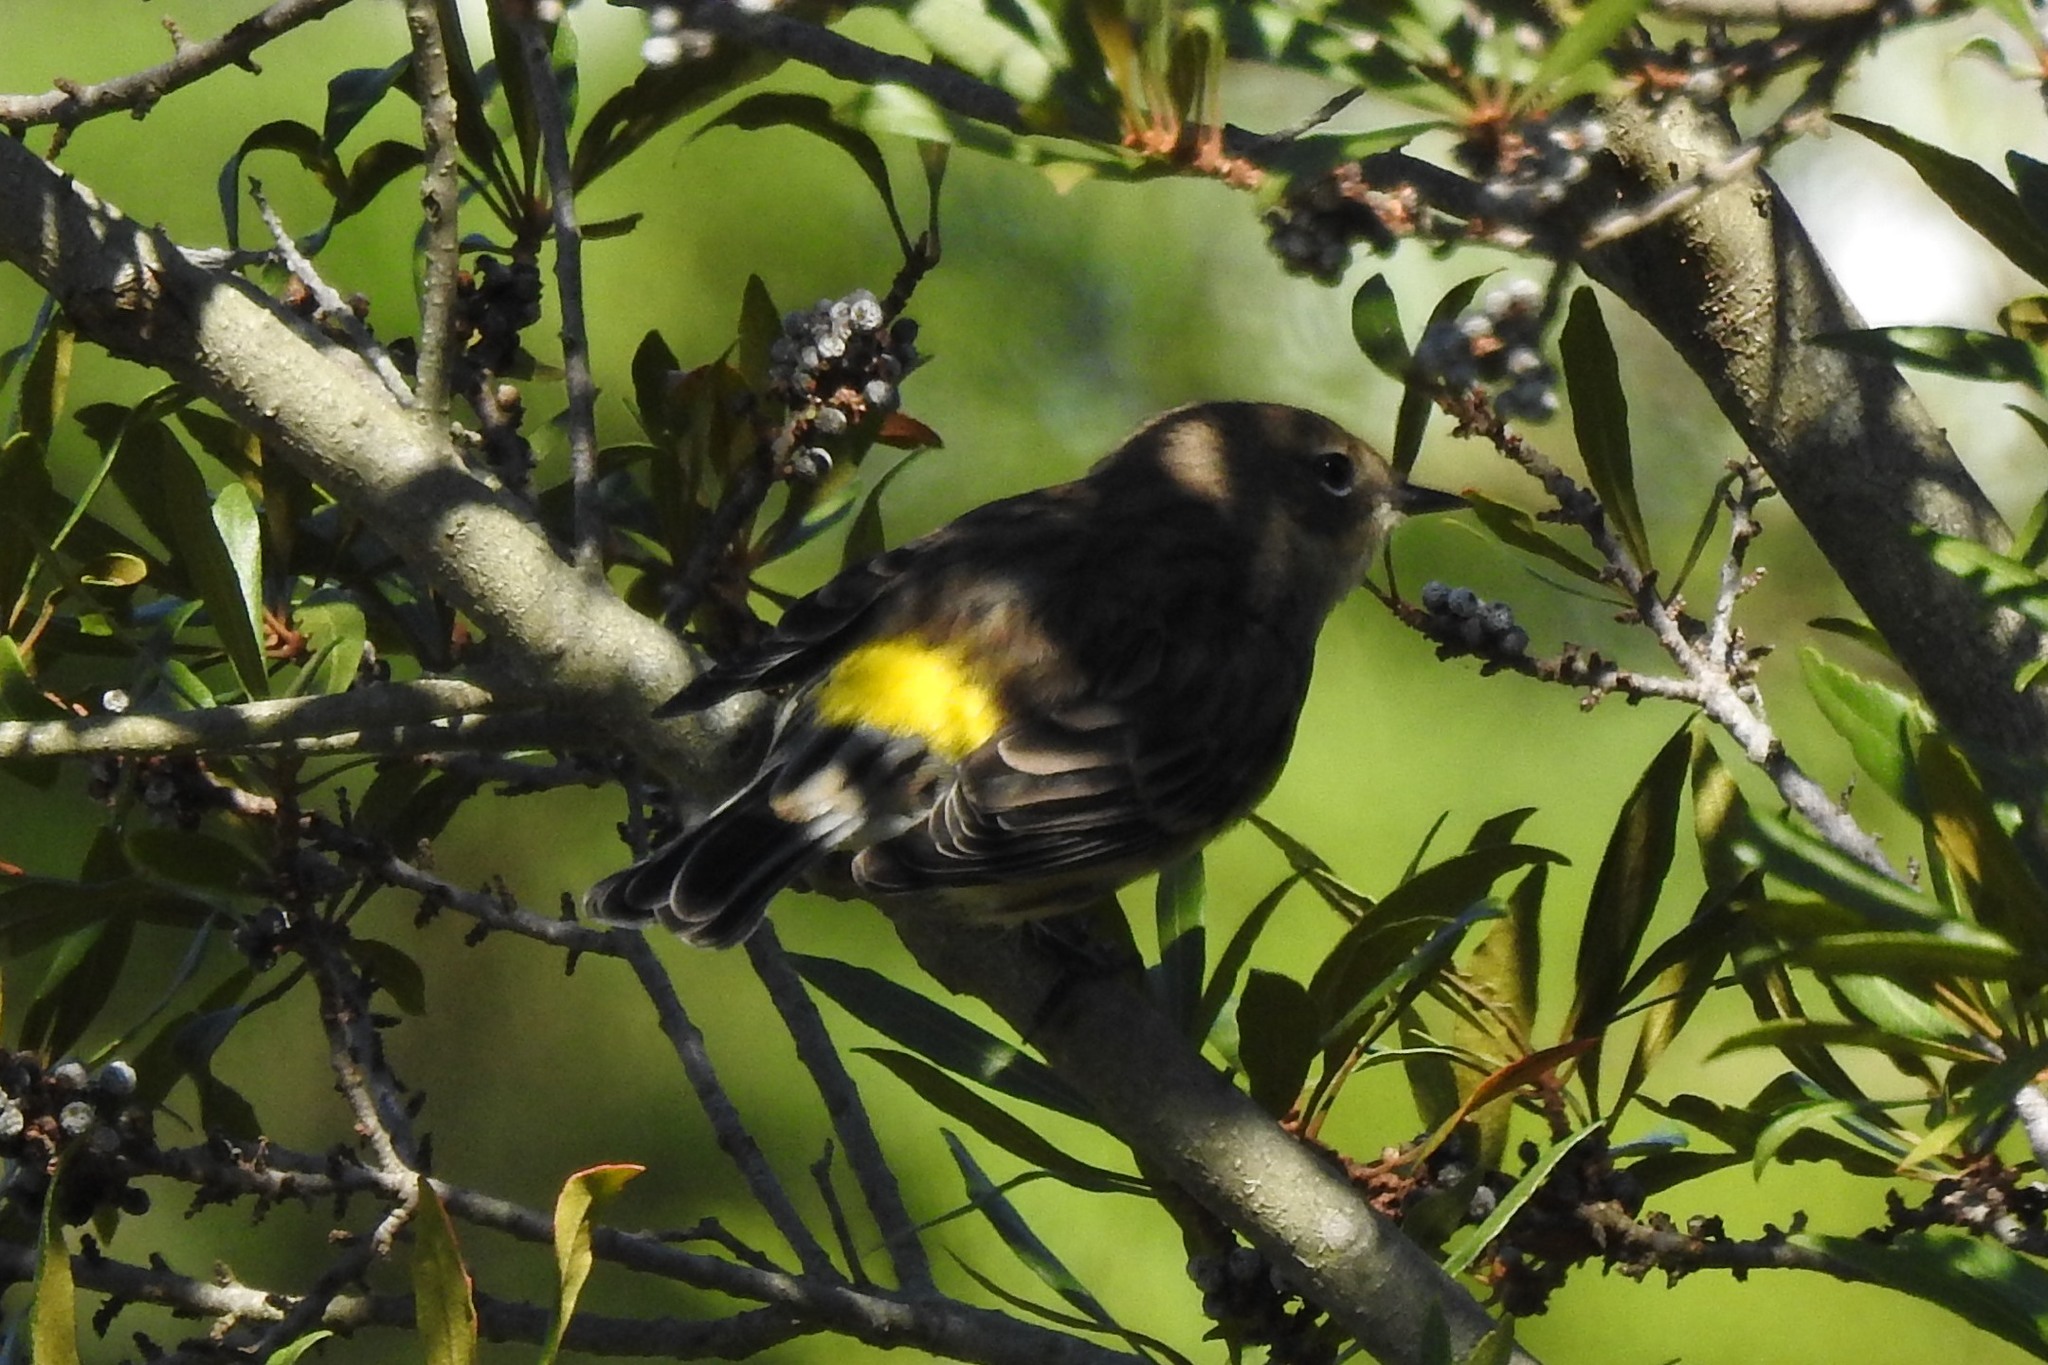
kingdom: Animalia
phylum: Chordata
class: Aves
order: Passeriformes
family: Parulidae
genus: Setophaga
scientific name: Setophaga coronata
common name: Myrtle warbler
